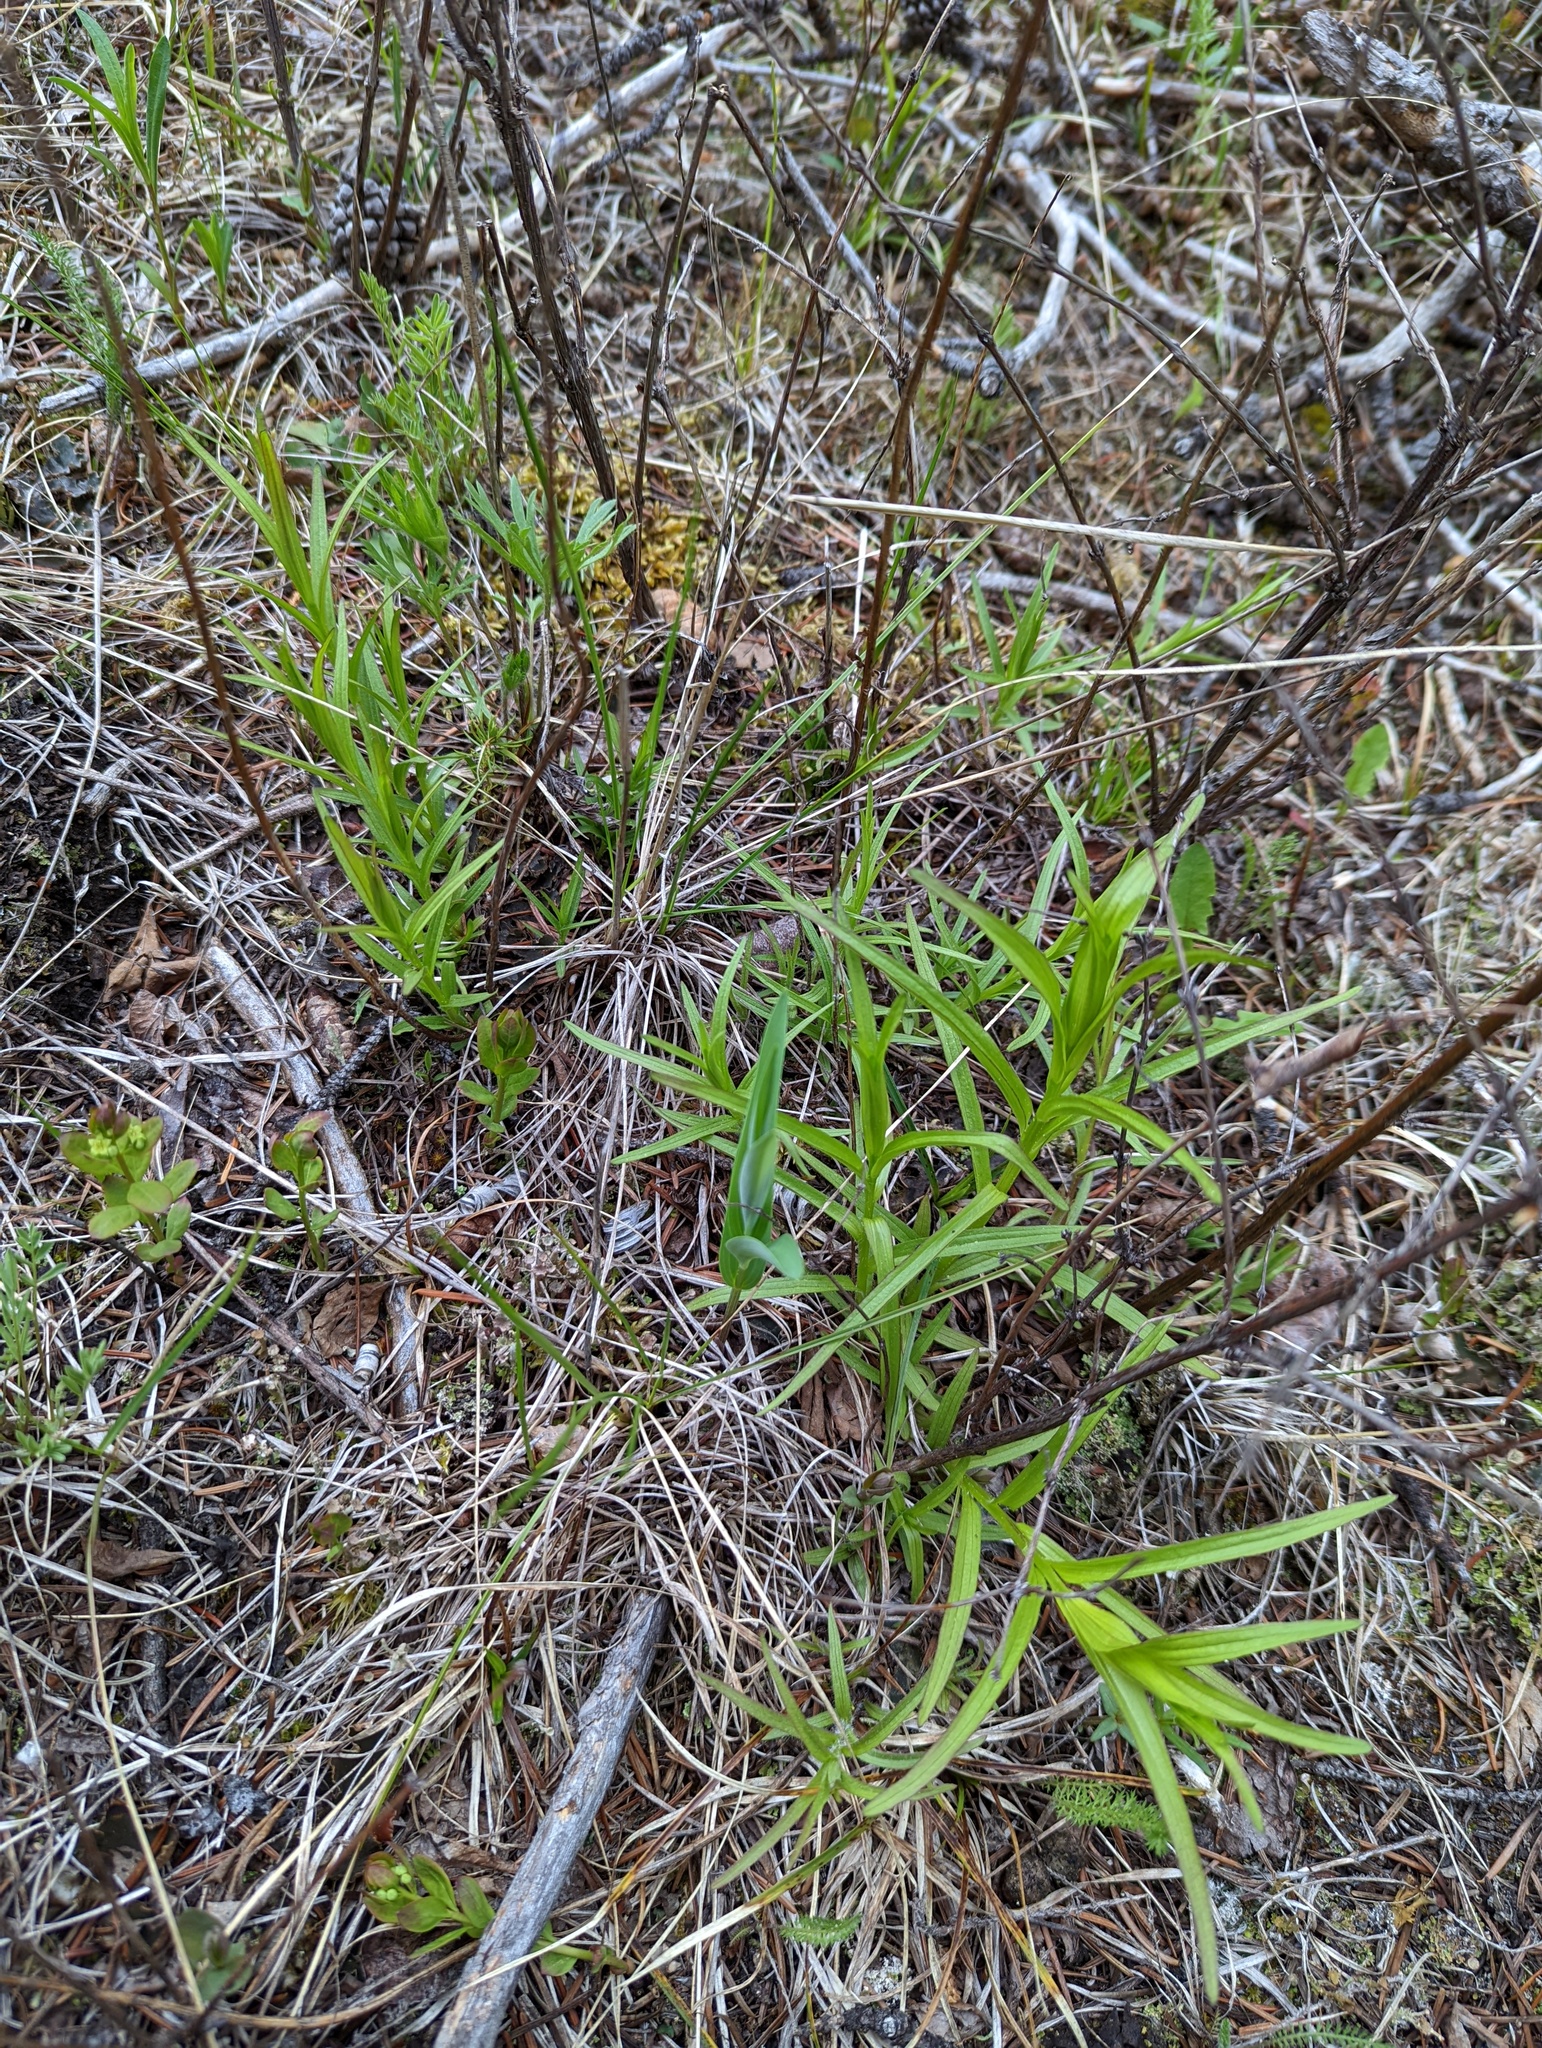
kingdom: Plantae
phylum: Tracheophyta
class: Magnoliopsida
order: Lamiales
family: Orobanchaceae
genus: Castilleja
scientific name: Castilleja miniata
